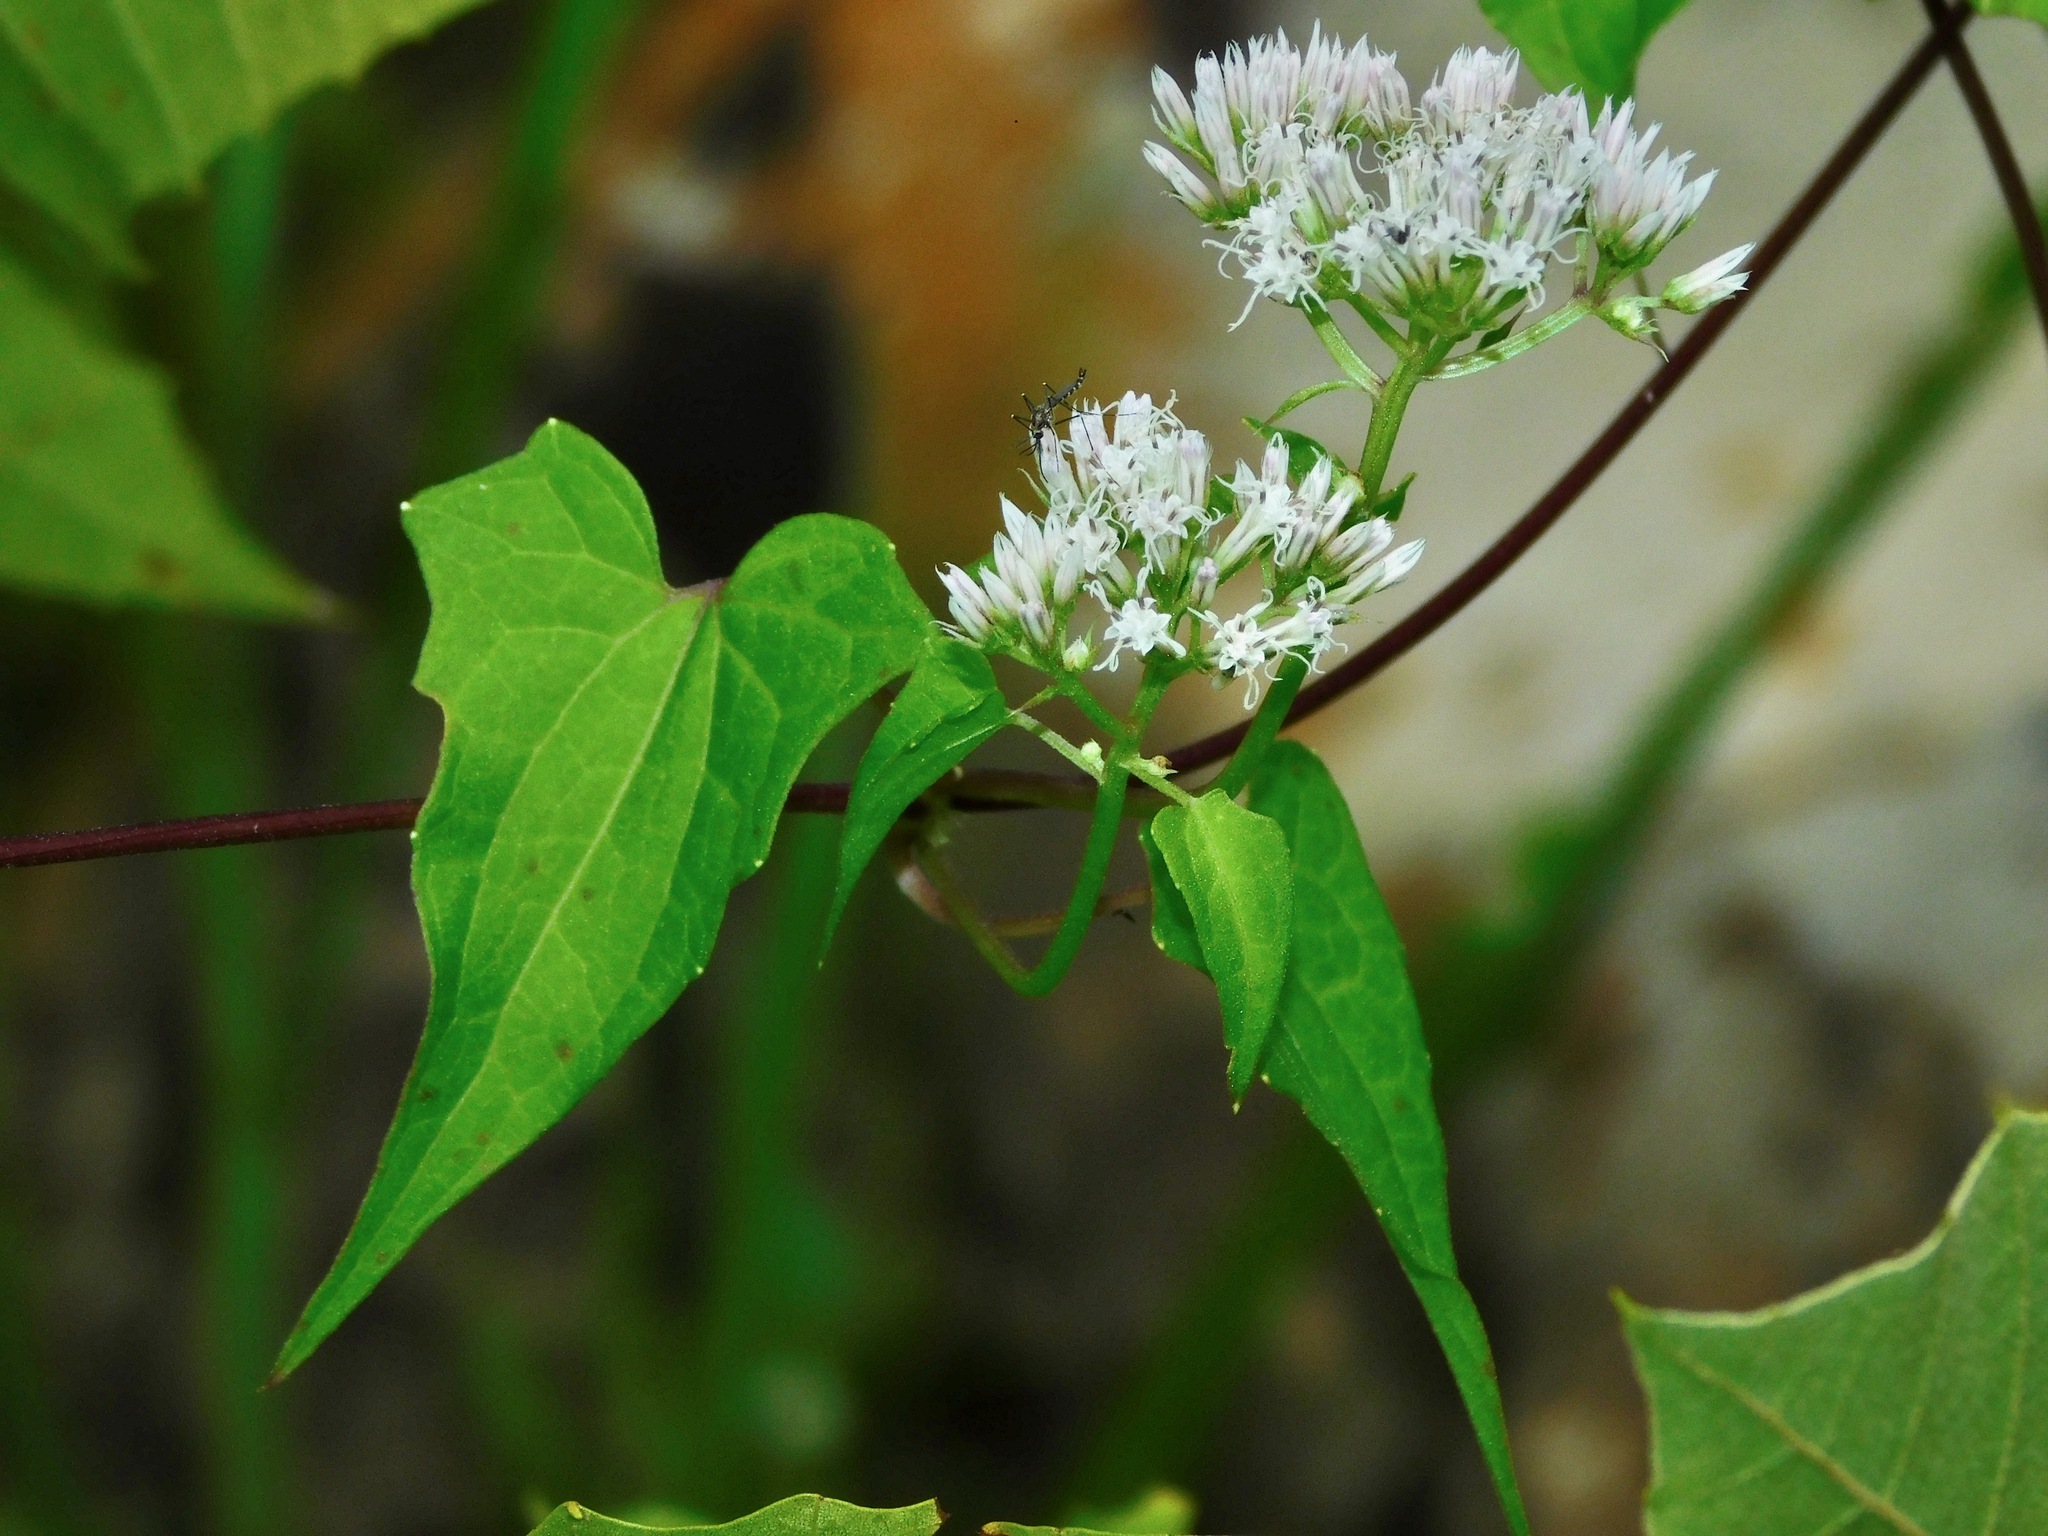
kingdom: Animalia
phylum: Arthropoda
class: Insecta
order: Diptera
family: Culicidae
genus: Aedes
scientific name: Aedes atropalpus
